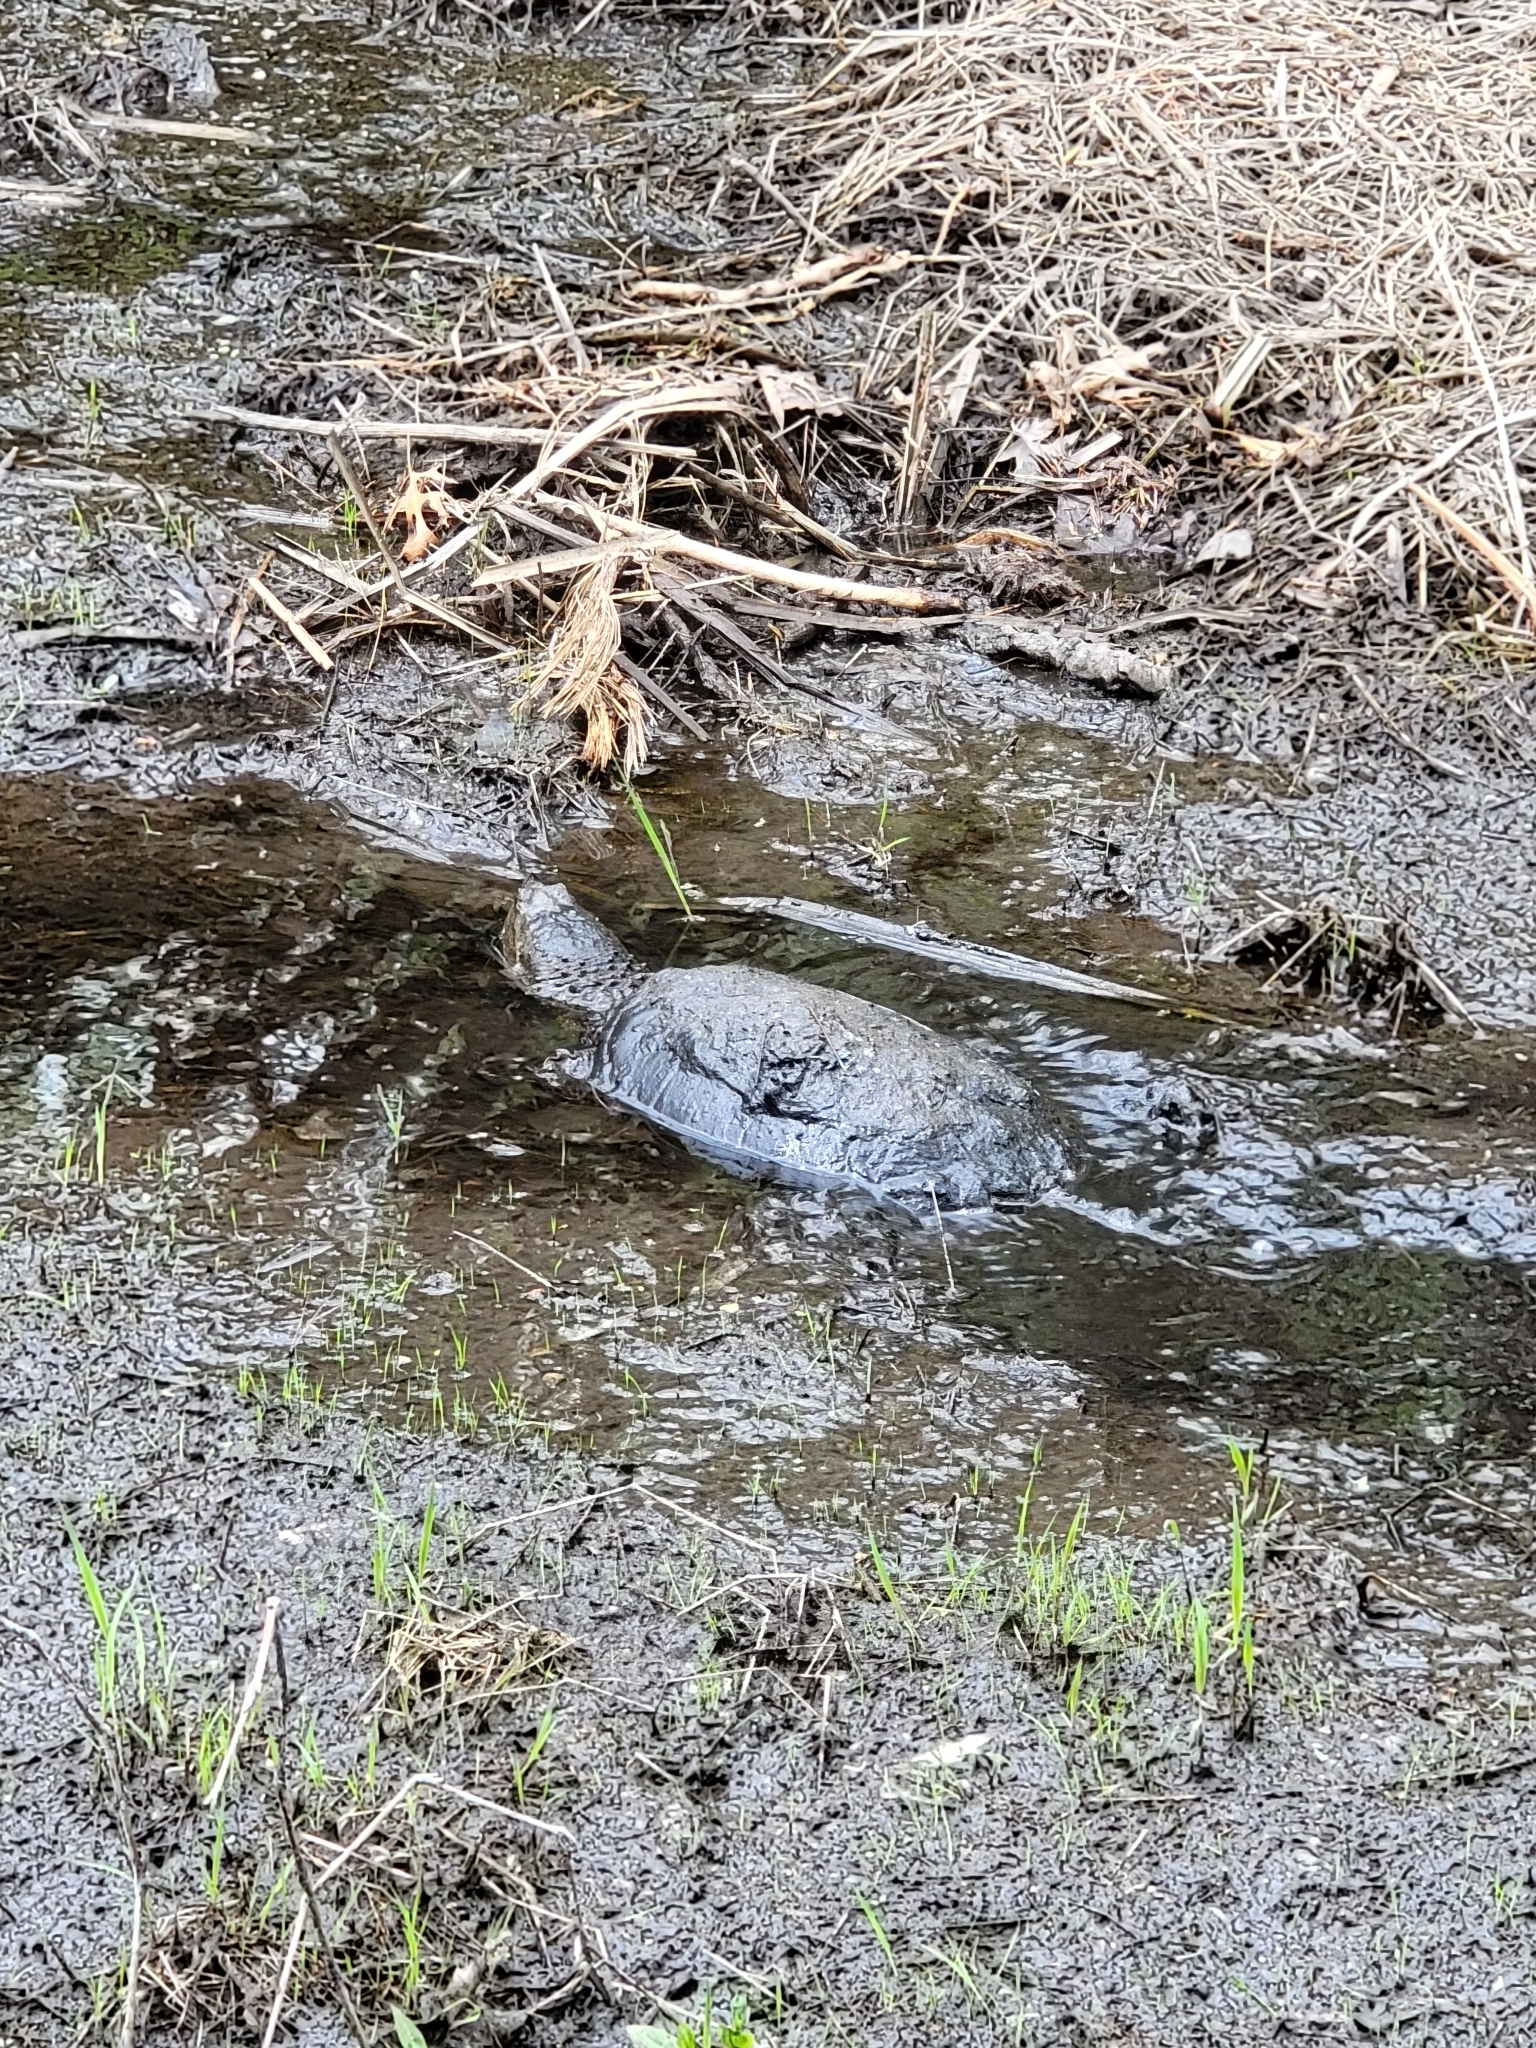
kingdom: Animalia
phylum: Chordata
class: Testudines
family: Chelydridae
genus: Chelydra
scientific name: Chelydra serpentina
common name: Common snapping turtle
